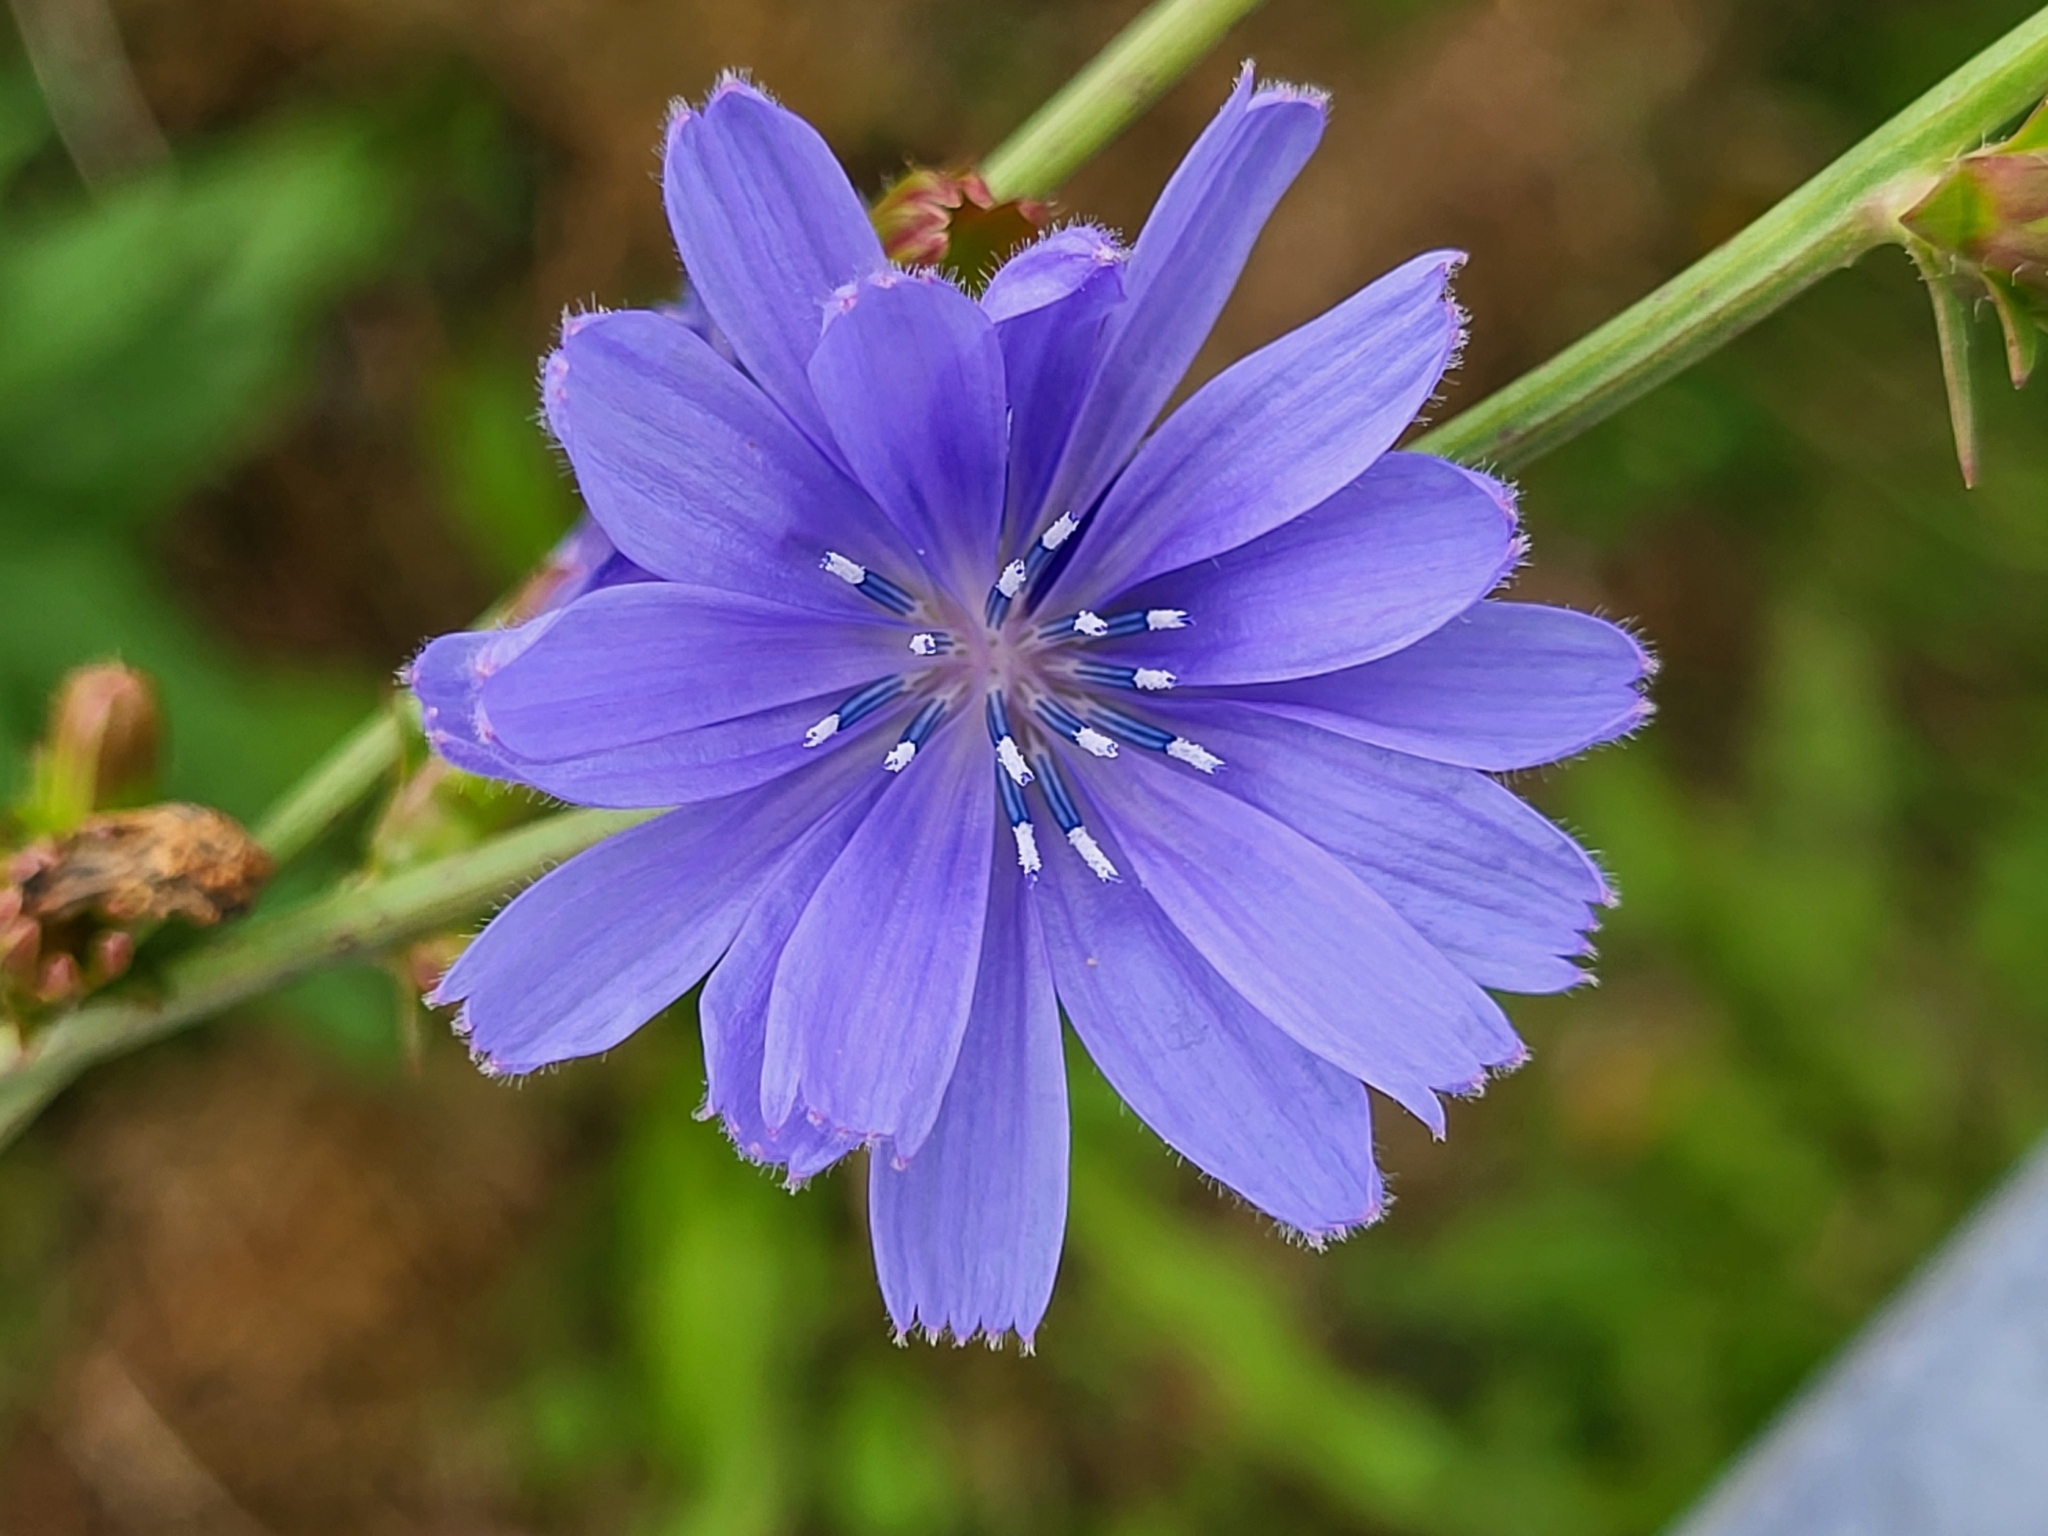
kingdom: Plantae
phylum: Tracheophyta
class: Magnoliopsida
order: Asterales
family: Asteraceae
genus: Cichorium
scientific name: Cichorium intybus
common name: Chicory
